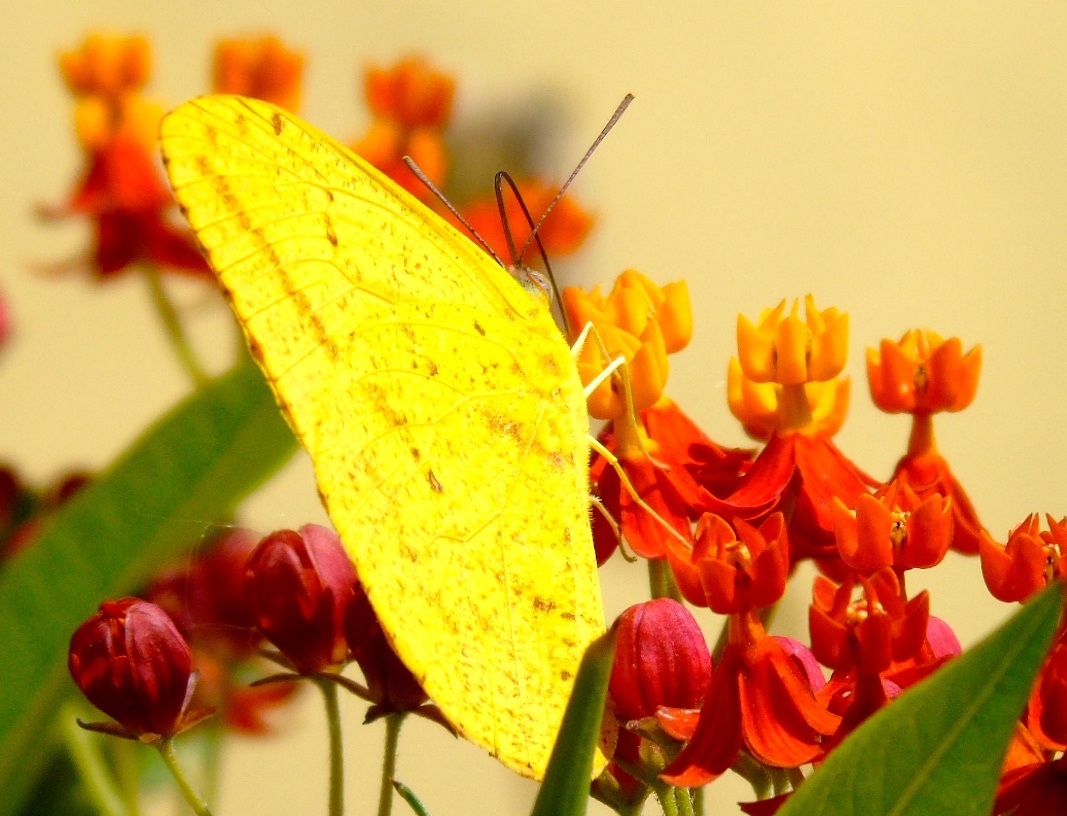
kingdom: Animalia
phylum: Arthropoda
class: Insecta
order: Lepidoptera
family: Pieridae
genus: Phoebis
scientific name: Phoebis agarithe
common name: Large orange sulphur
